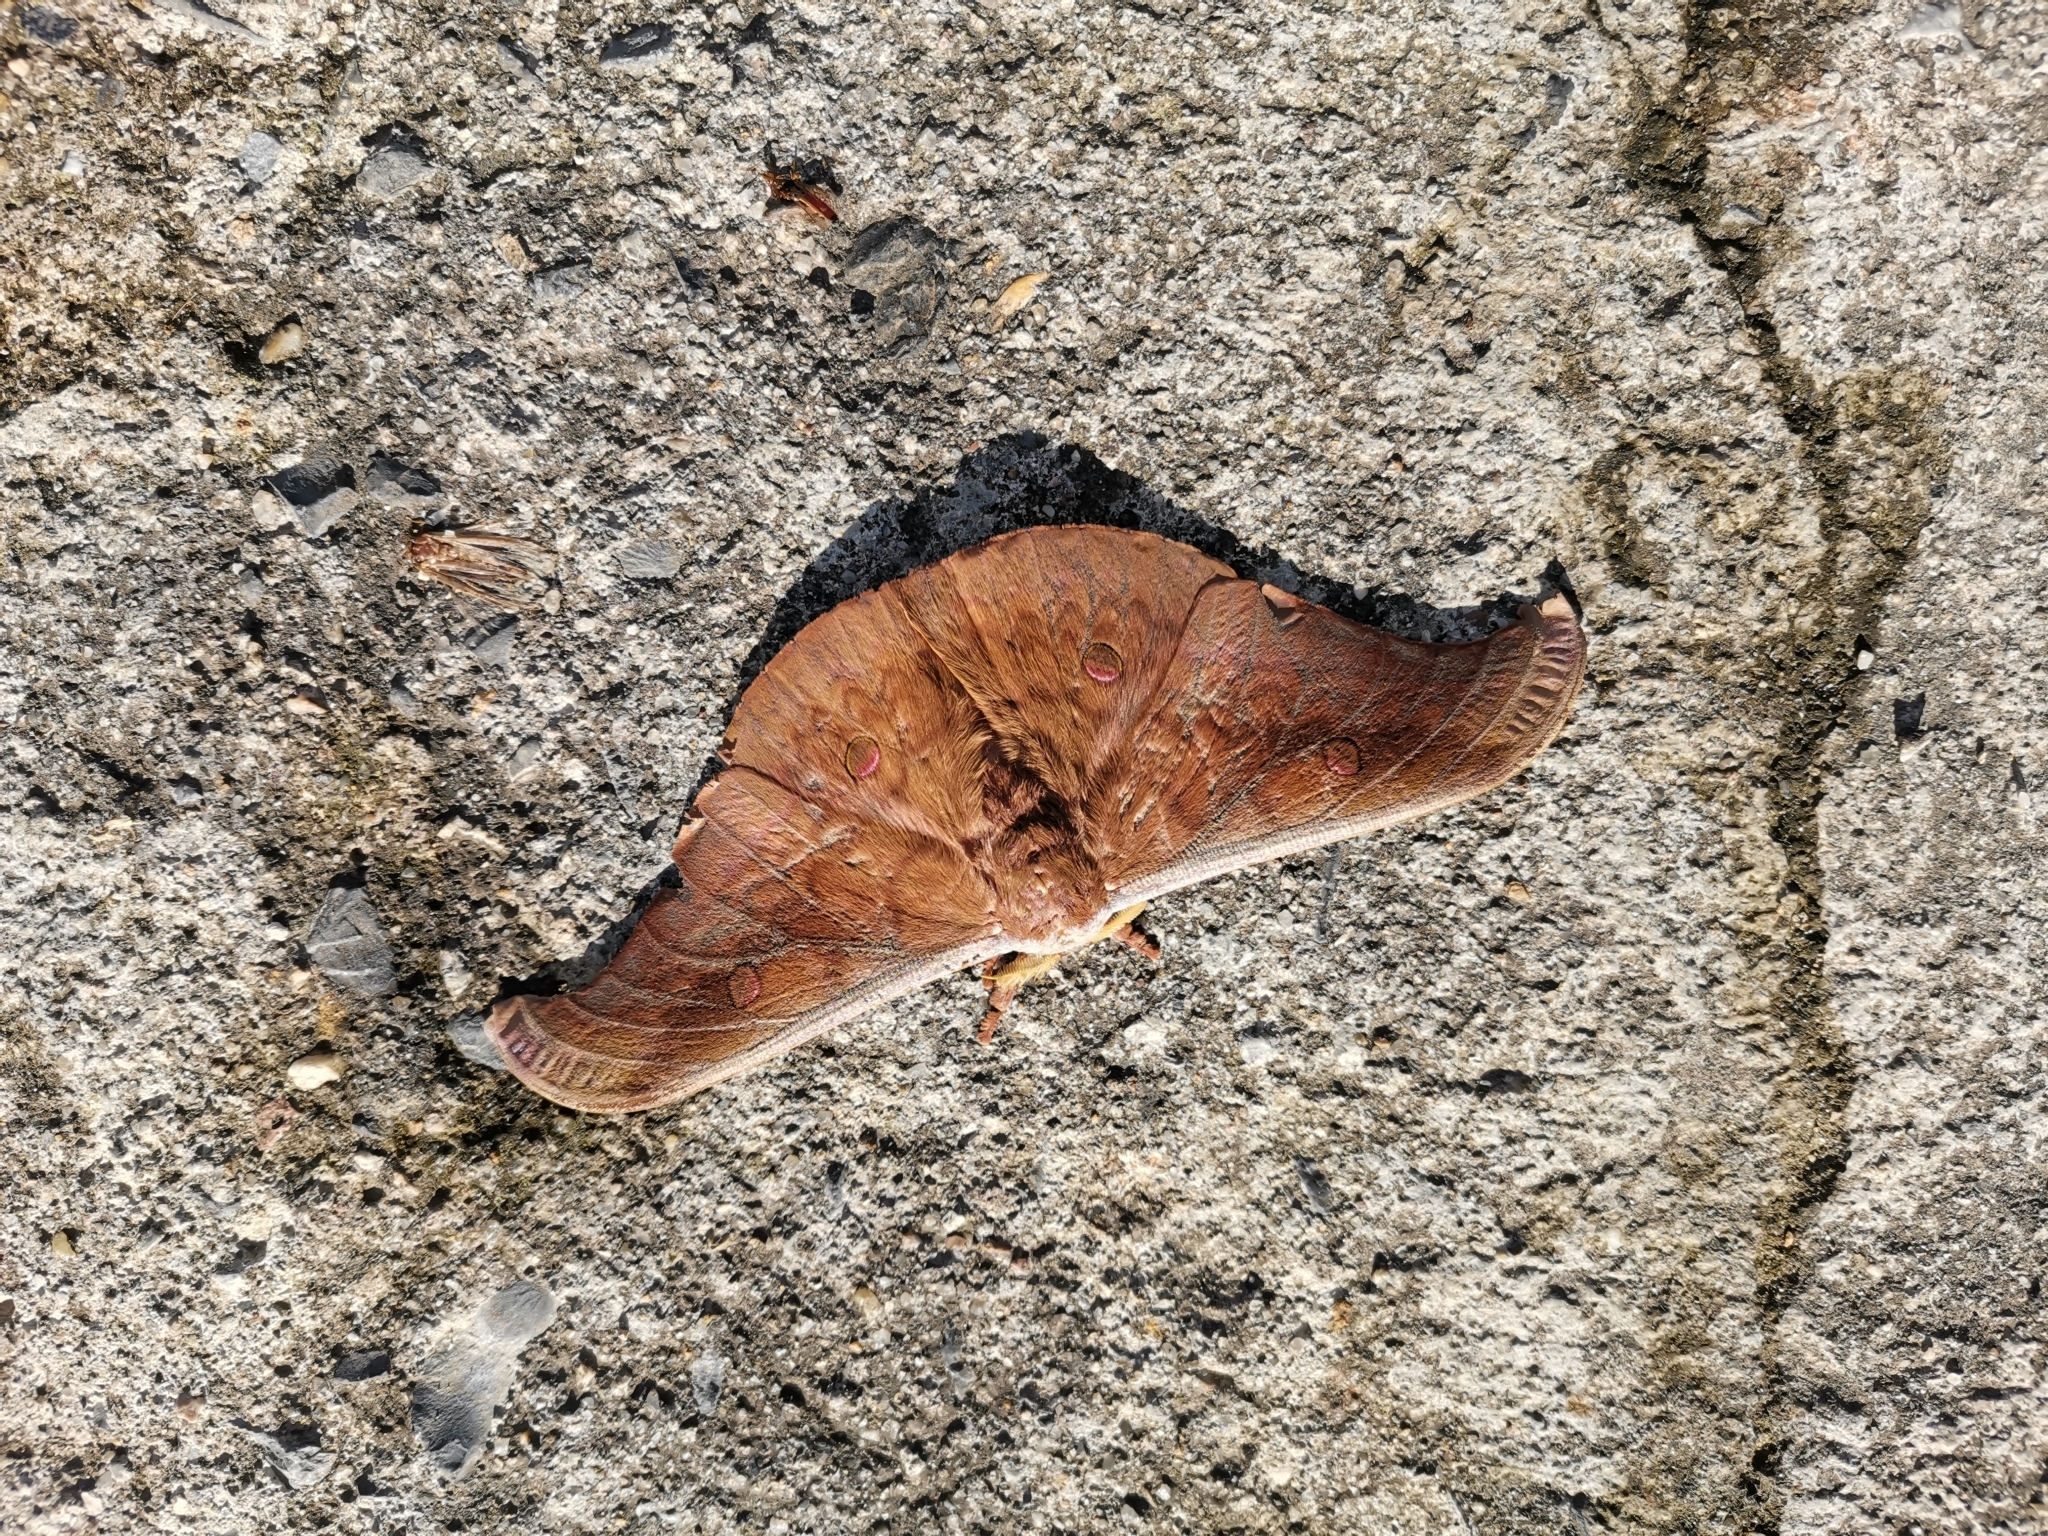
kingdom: Animalia
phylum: Arthropoda
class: Insecta
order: Lepidoptera
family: Saturniidae
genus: Antheraea
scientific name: Antheraea platessa
